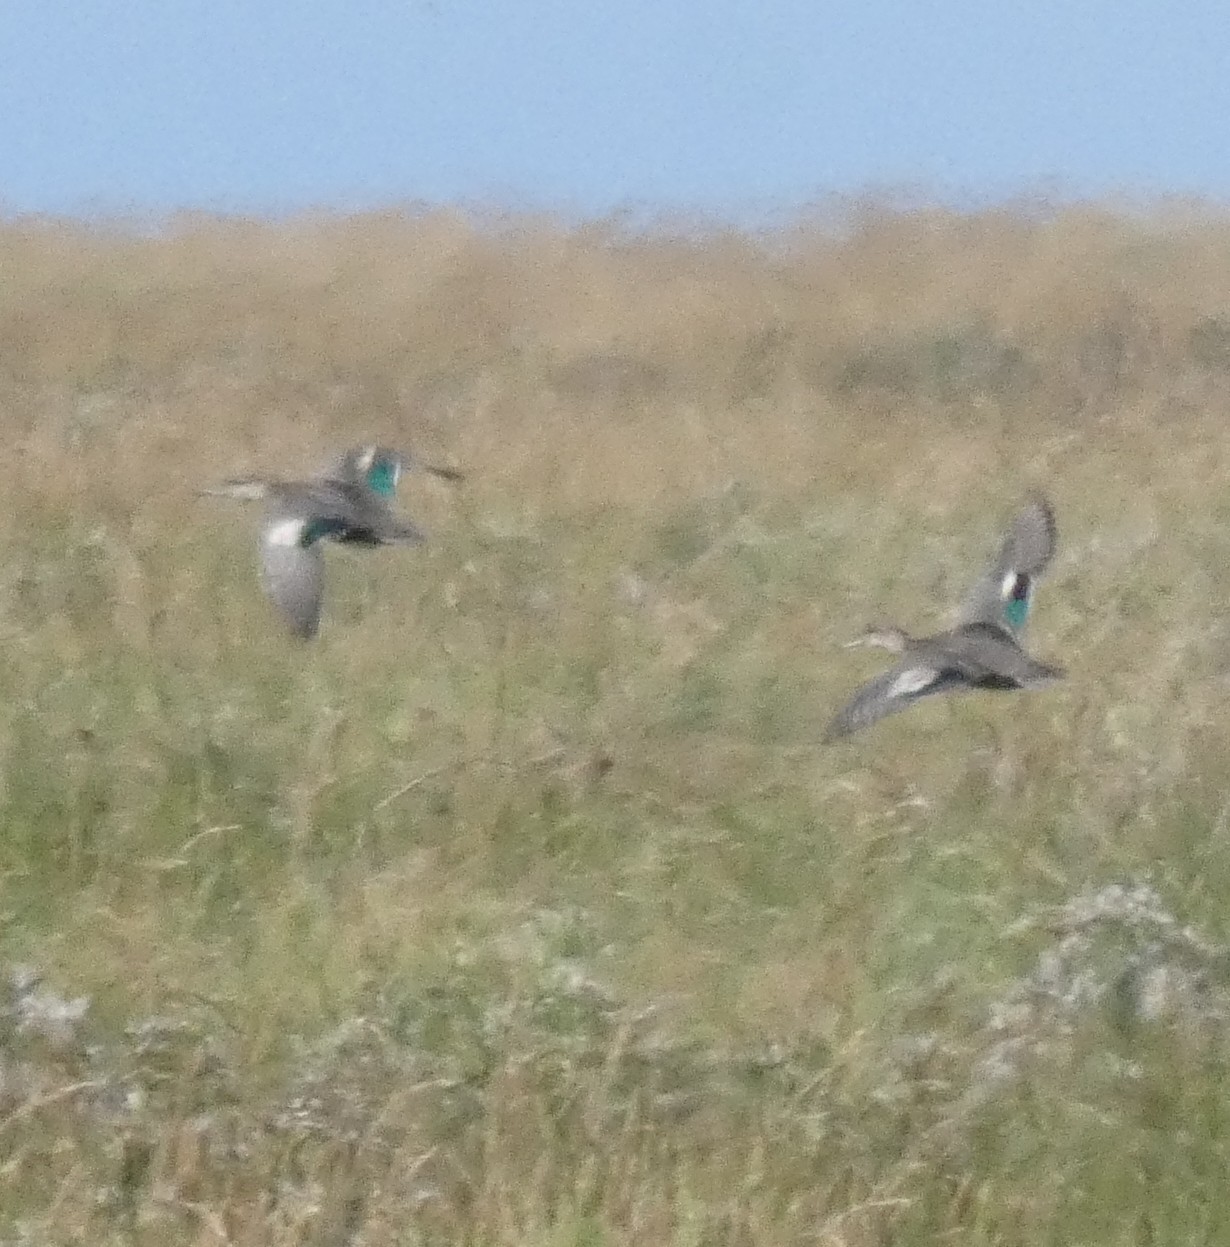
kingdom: Animalia
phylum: Chordata
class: Aves
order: Anseriformes
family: Anatidae
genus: Anas
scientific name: Anas crecca
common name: Eurasian teal
